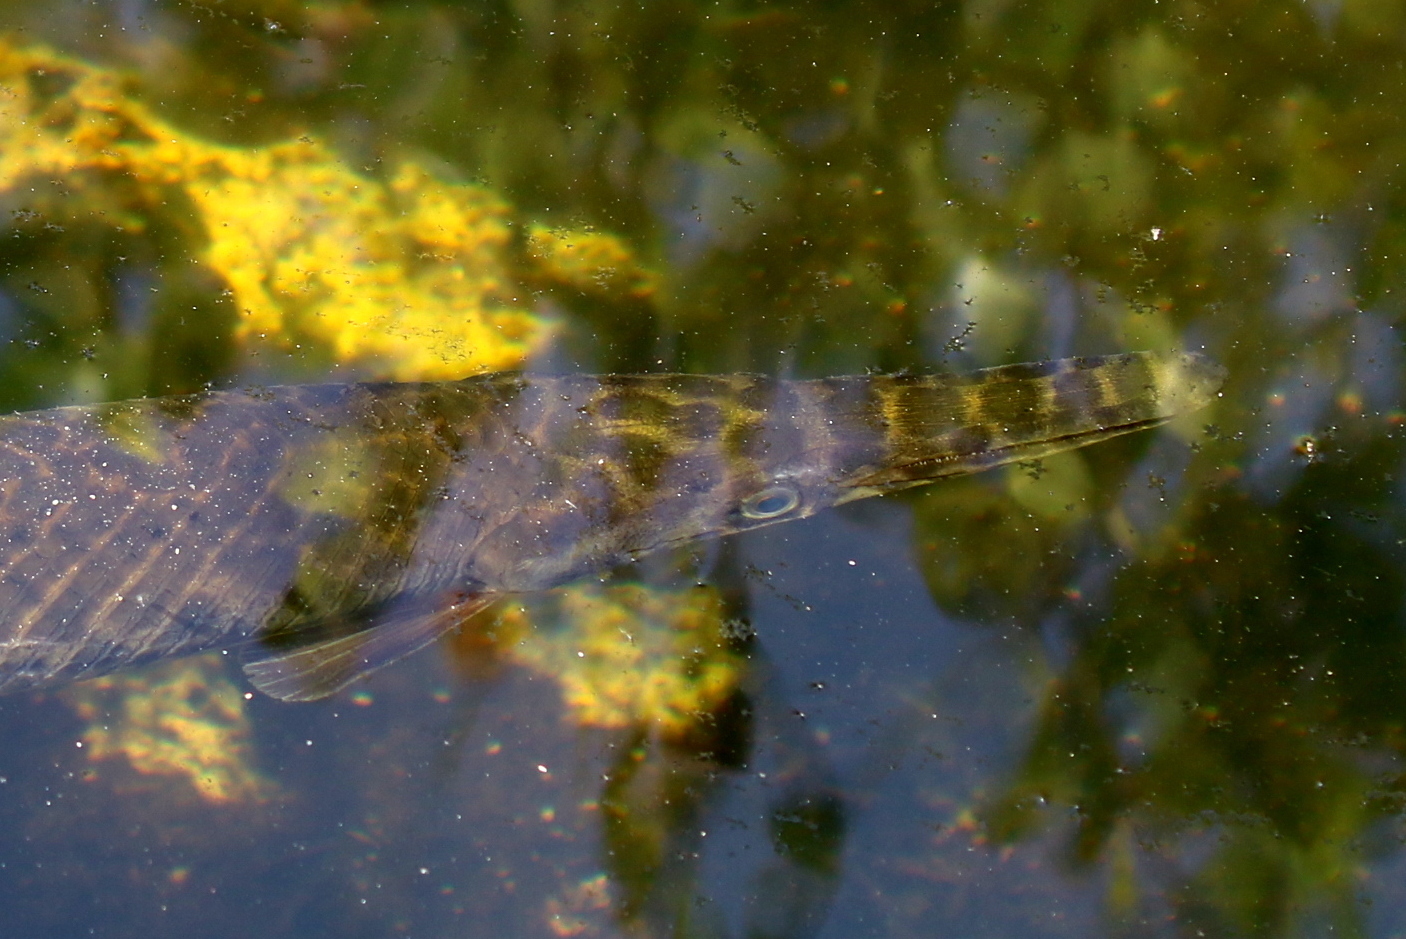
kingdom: Animalia
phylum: Chordata
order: Lepisosteiformes
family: Lepisosteidae
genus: Lepisosteus
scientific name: Lepisosteus platyrhincus
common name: Florida gar
